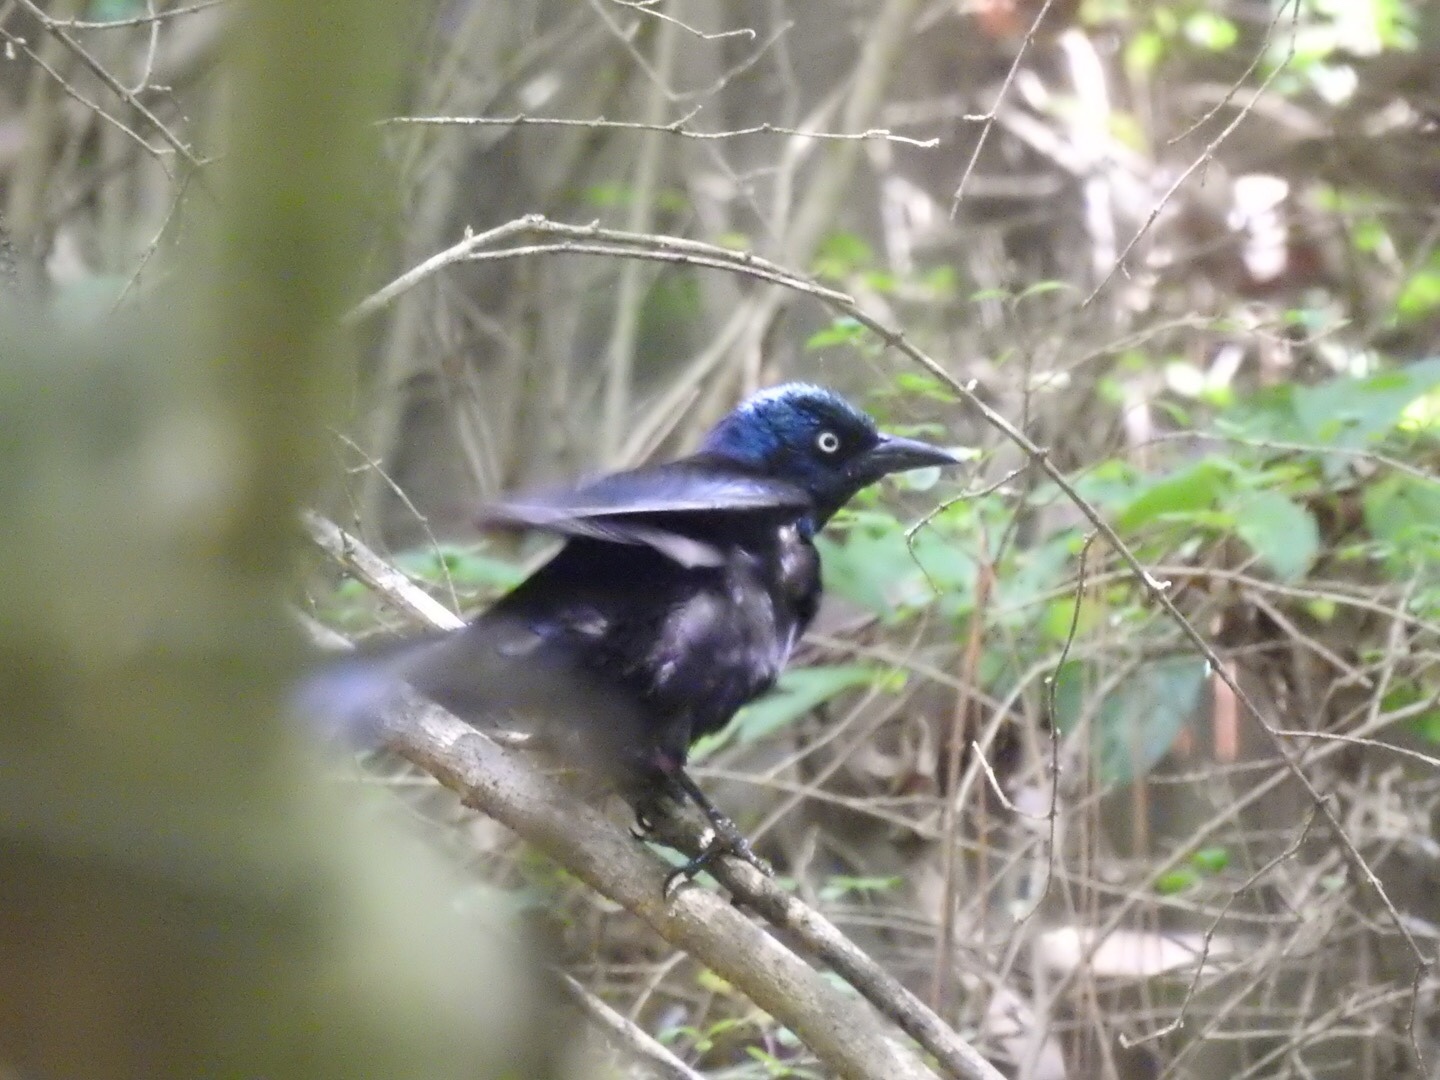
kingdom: Animalia
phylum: Chordata
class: Aves
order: Passeriformes
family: Icteridae
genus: Quiscalus
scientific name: Quiscalus quiscula
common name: Common grackle
